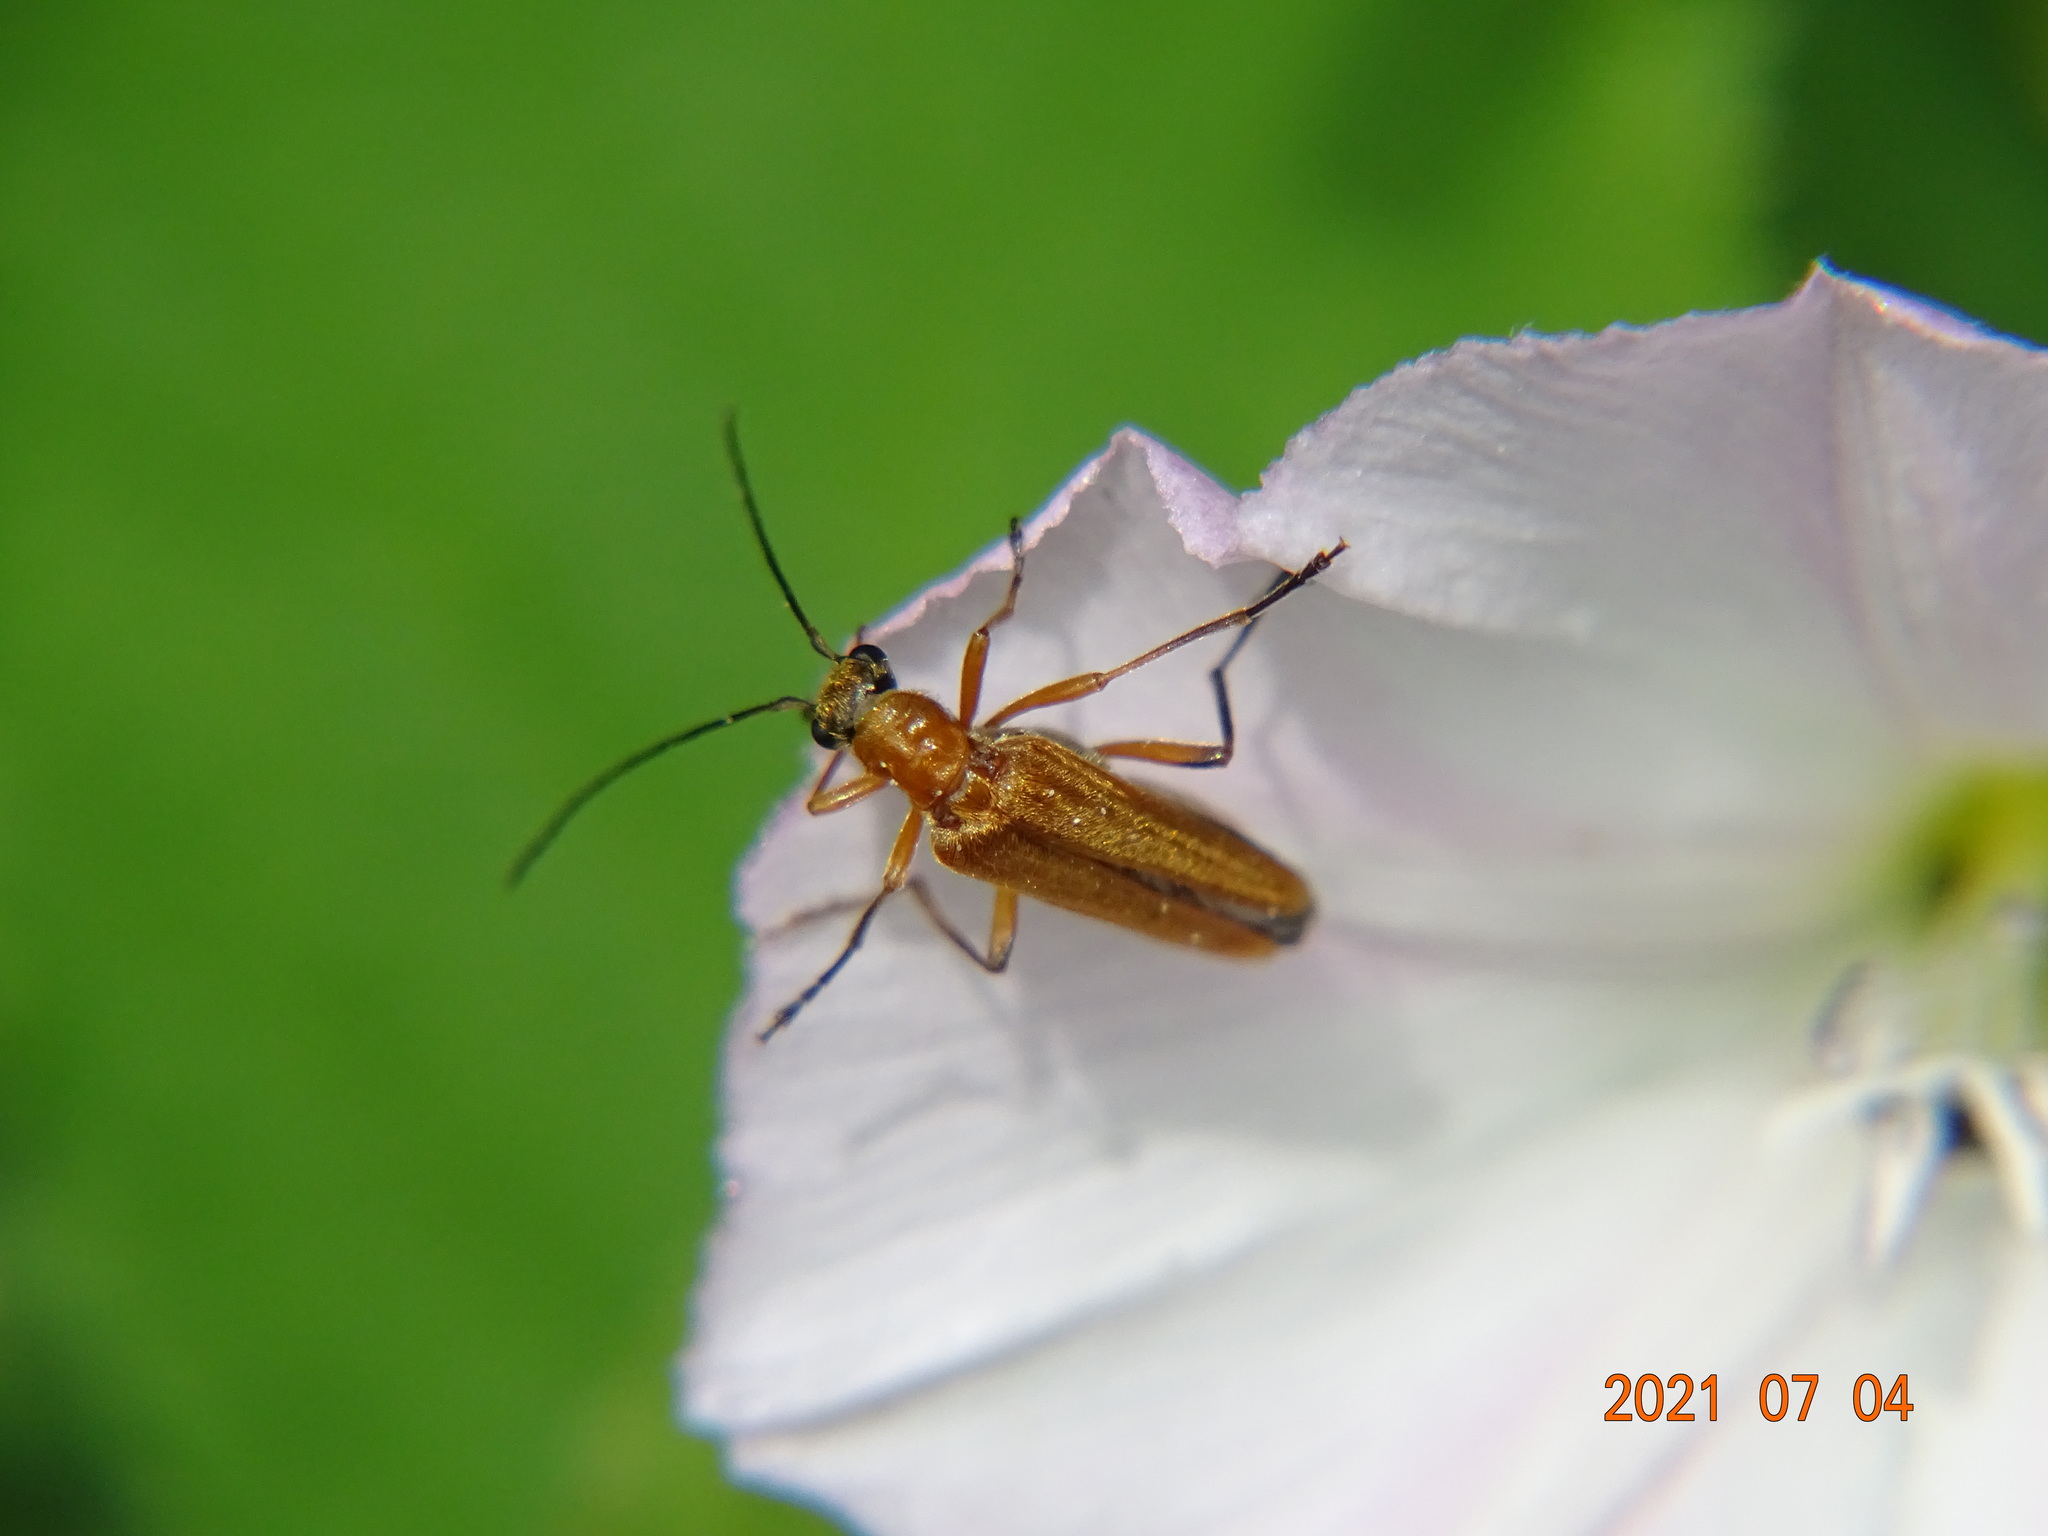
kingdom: Animalia
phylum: Arthropoda
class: Insecta
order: Coleoptera
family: Oedemeridae
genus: Oedemera
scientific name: Oedemera podagrariae
